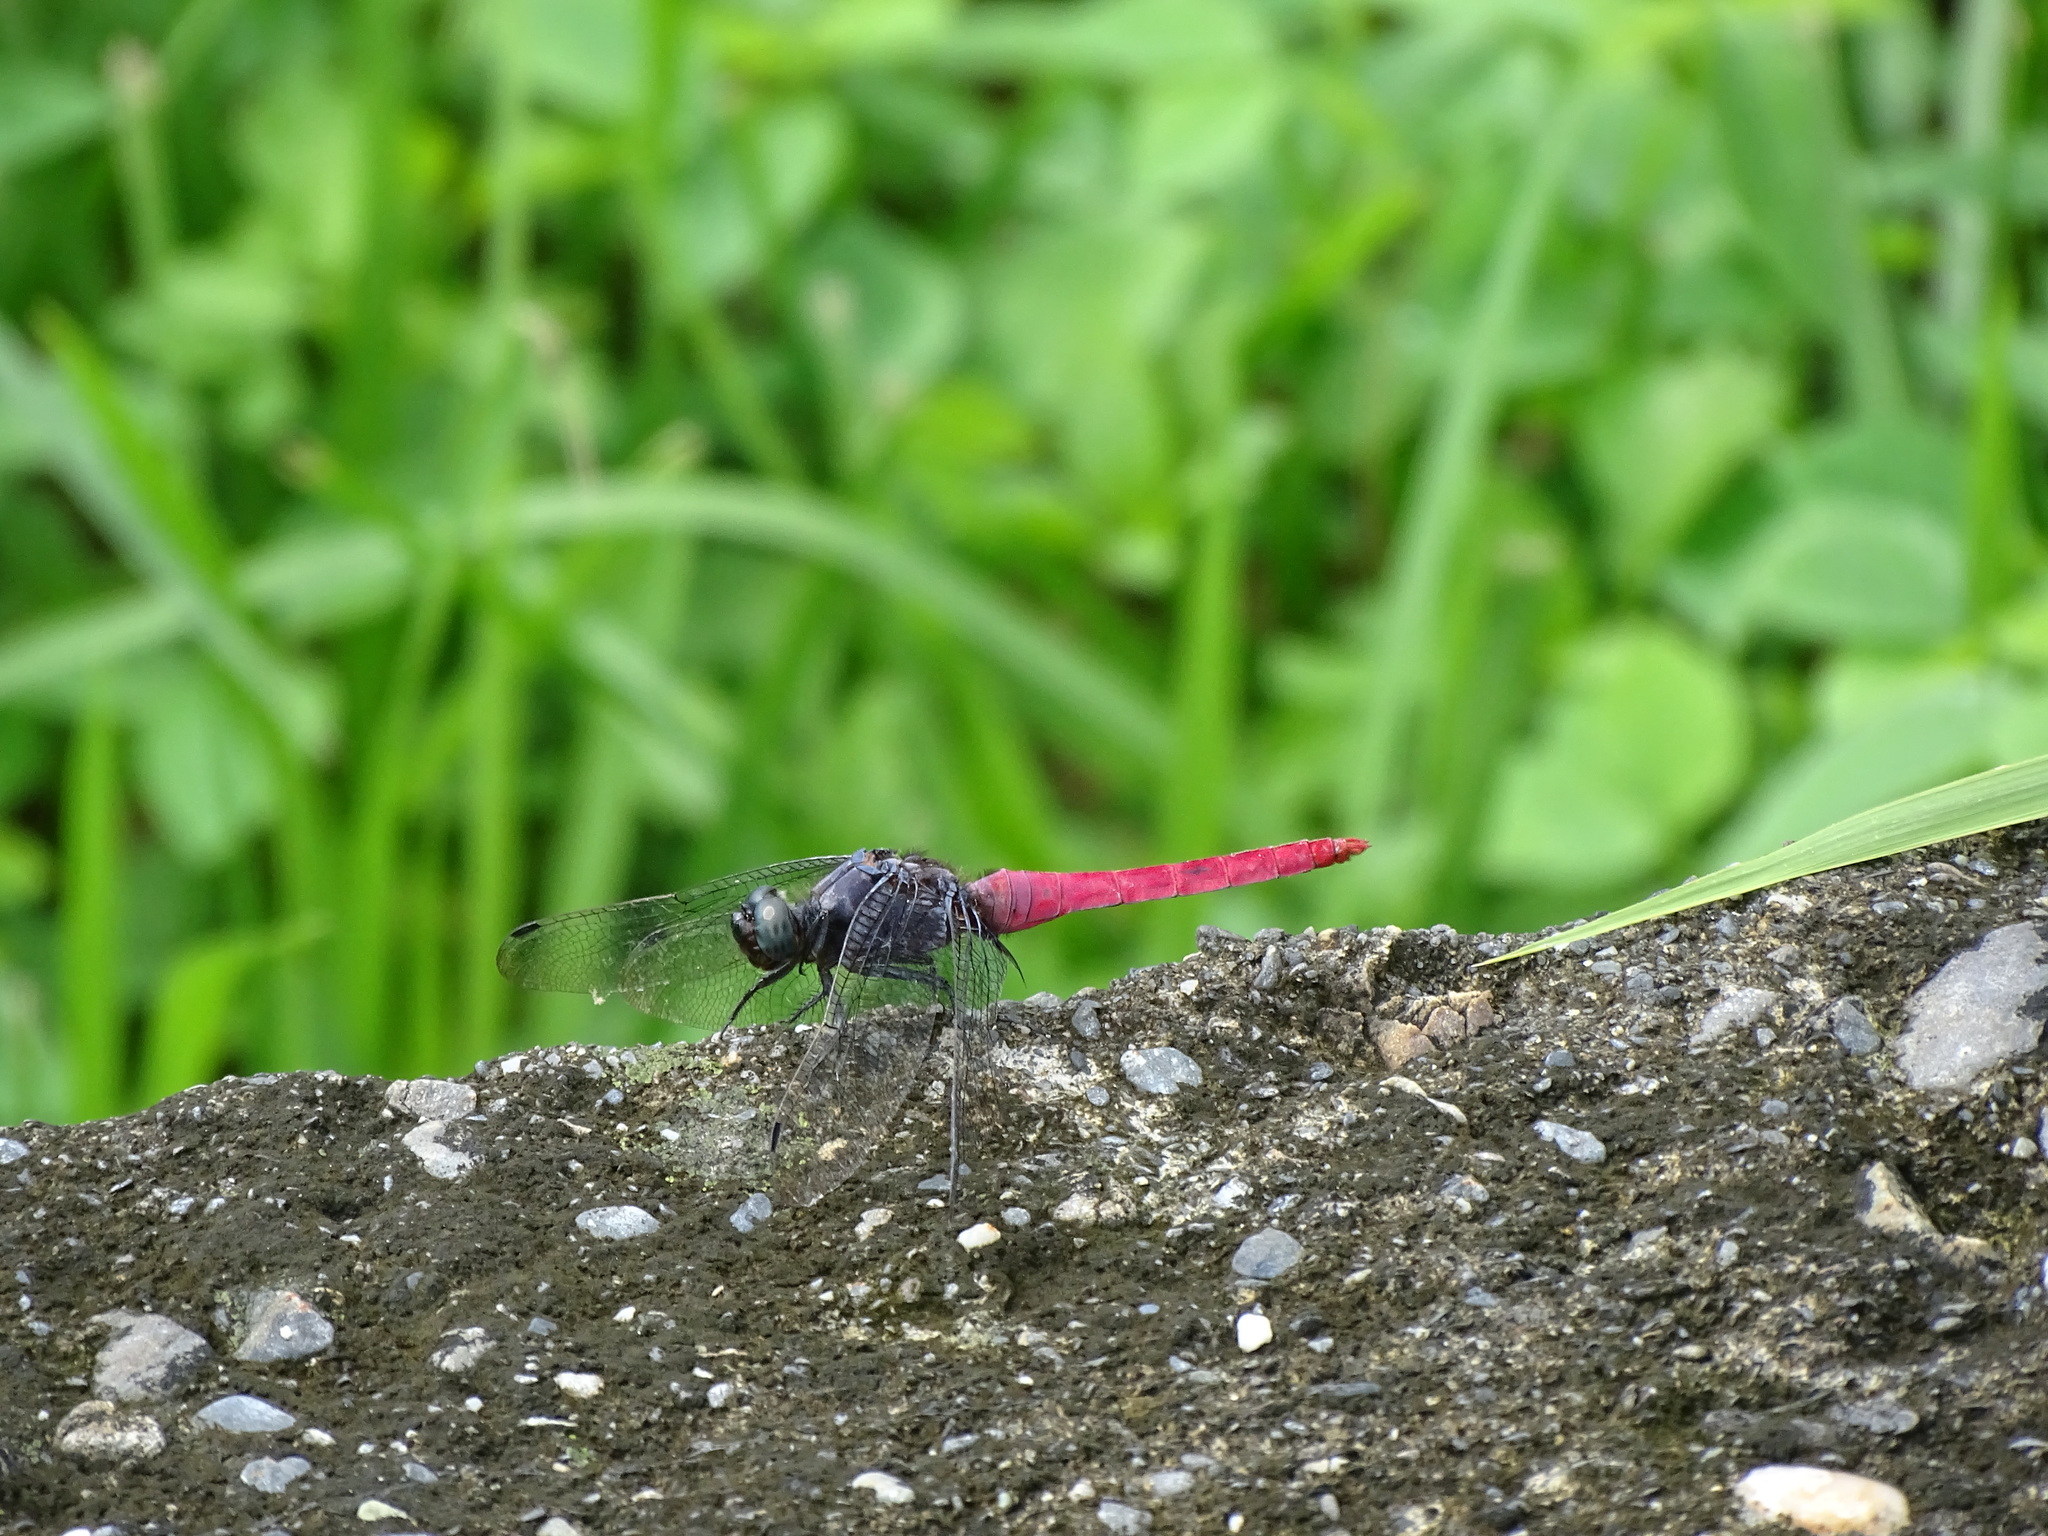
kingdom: Animalia
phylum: Arthropoda
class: Insecta
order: Odonata
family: Libellulidae
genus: Orthetrum
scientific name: Orthetrum pruinosum
